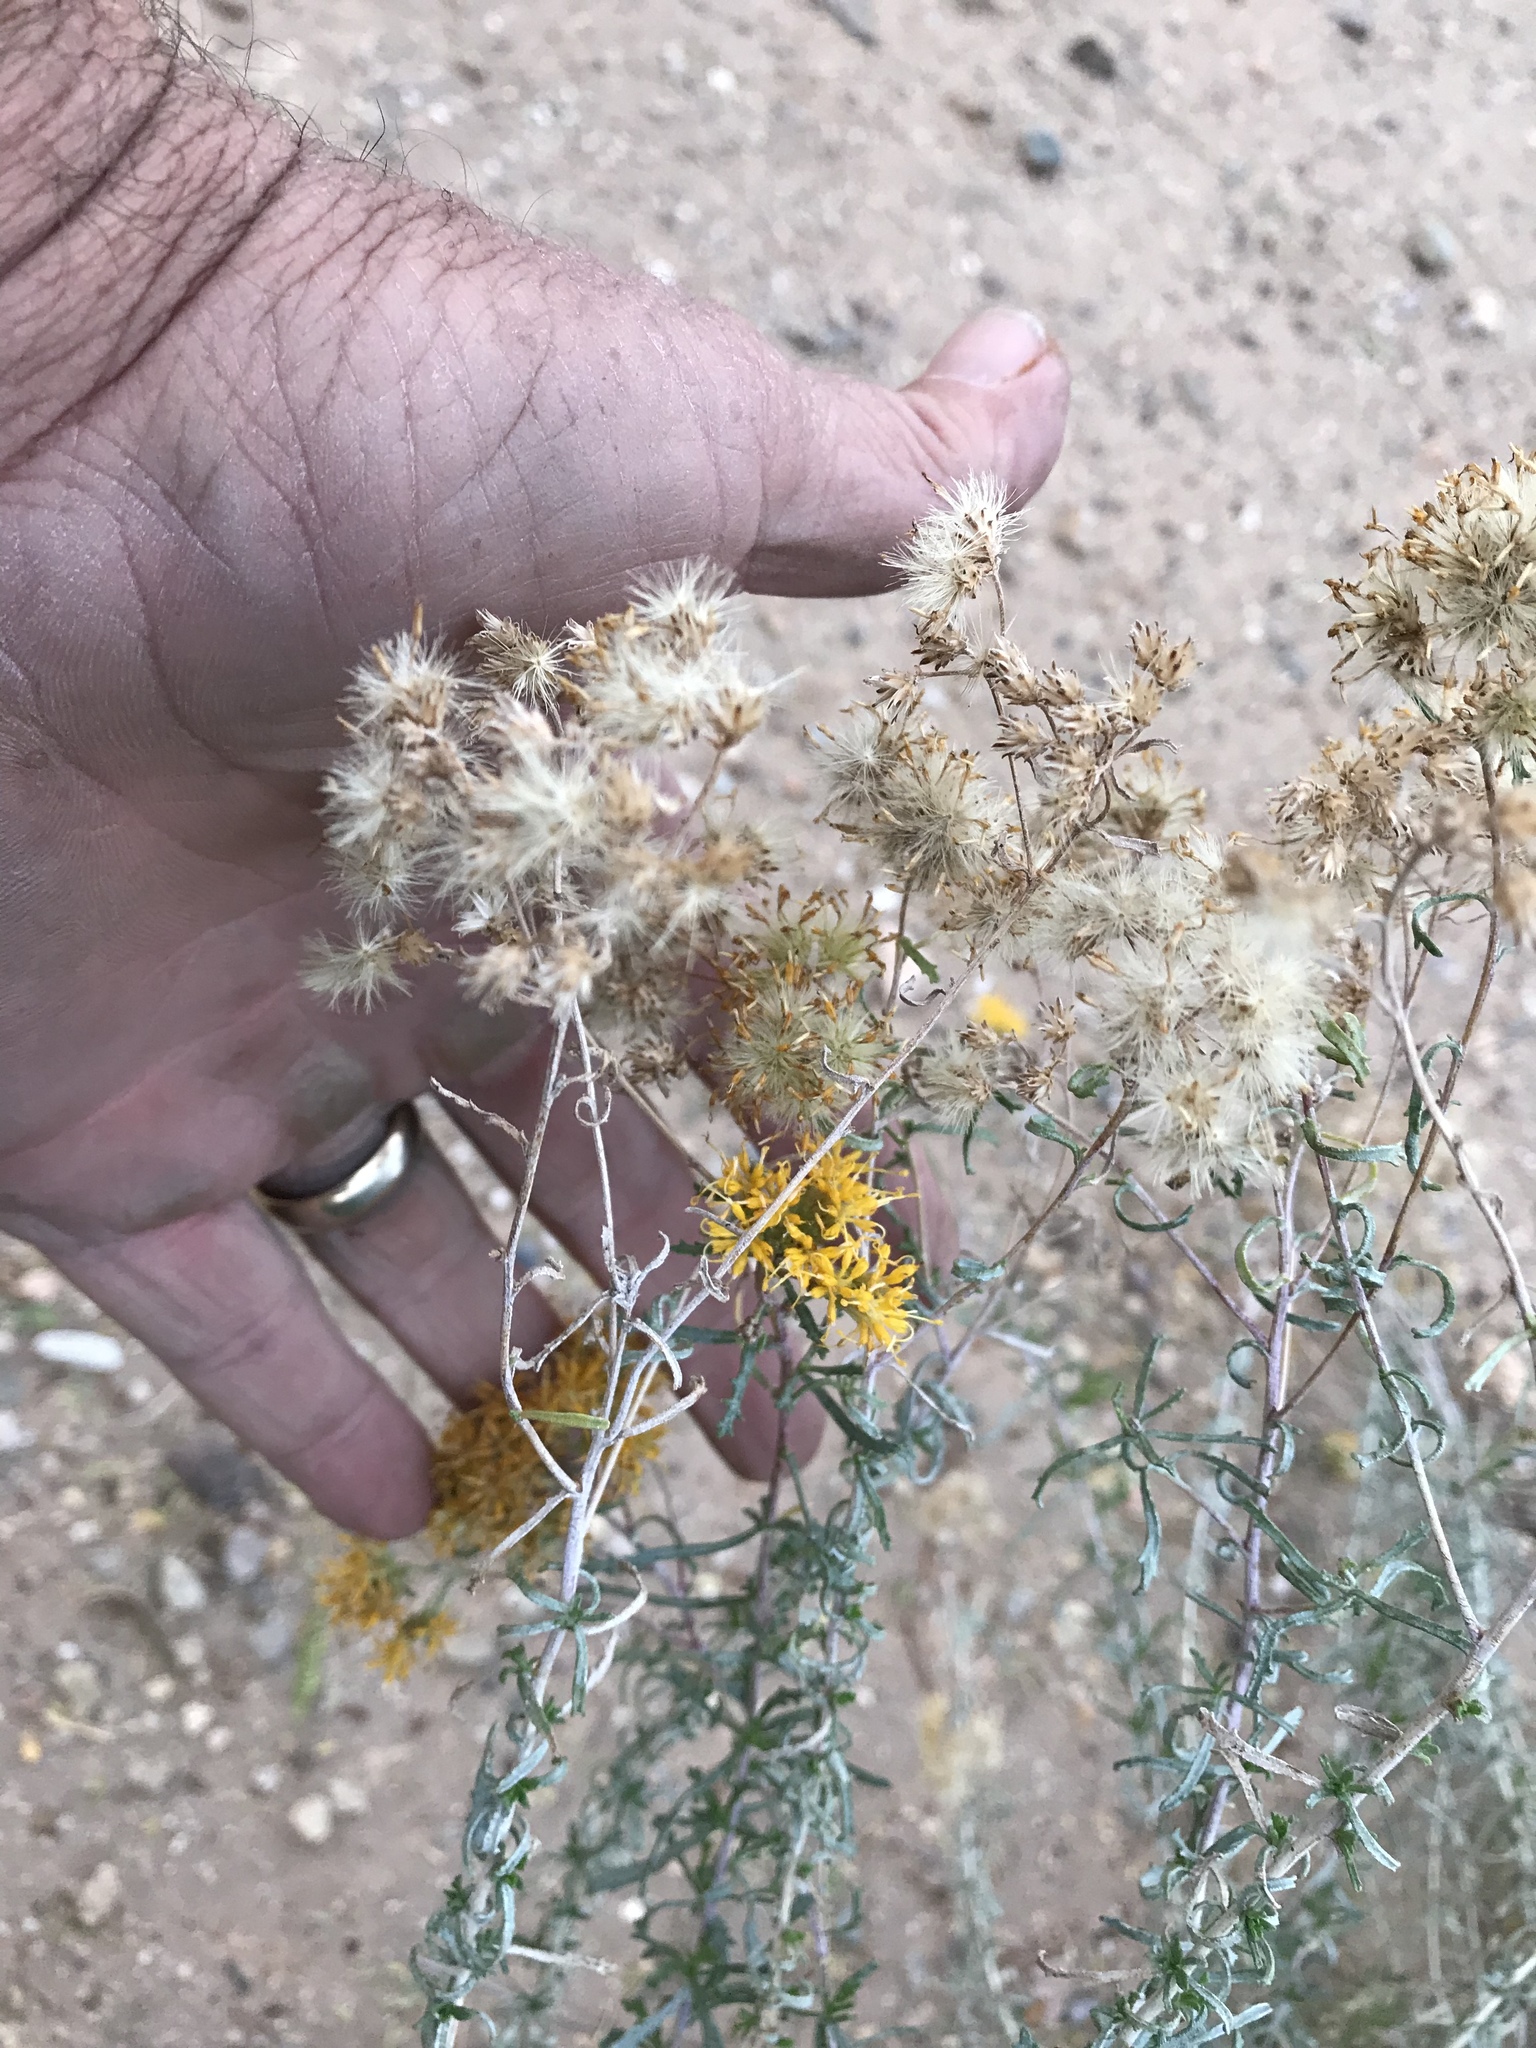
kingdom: Plantae
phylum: Tracheophyta
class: Magnoliopsida
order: Asterales
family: Asteraceae
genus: Isocoma
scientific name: Isocoma tenuisecta
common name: Burroweed
